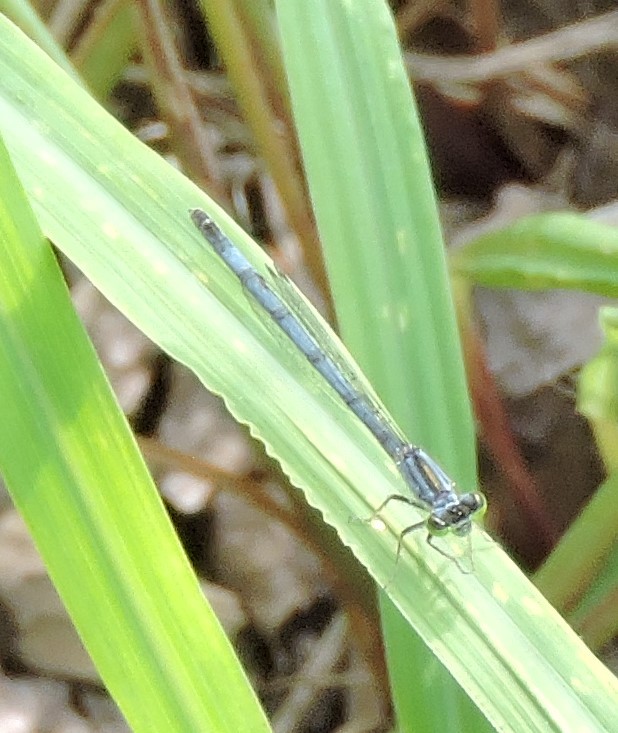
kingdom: Animalia
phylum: Arthropoda
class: Insecta
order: Odonata
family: Coenagrionidae
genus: Ischnura
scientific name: Ischnura verticalis
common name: Eastern forktail
